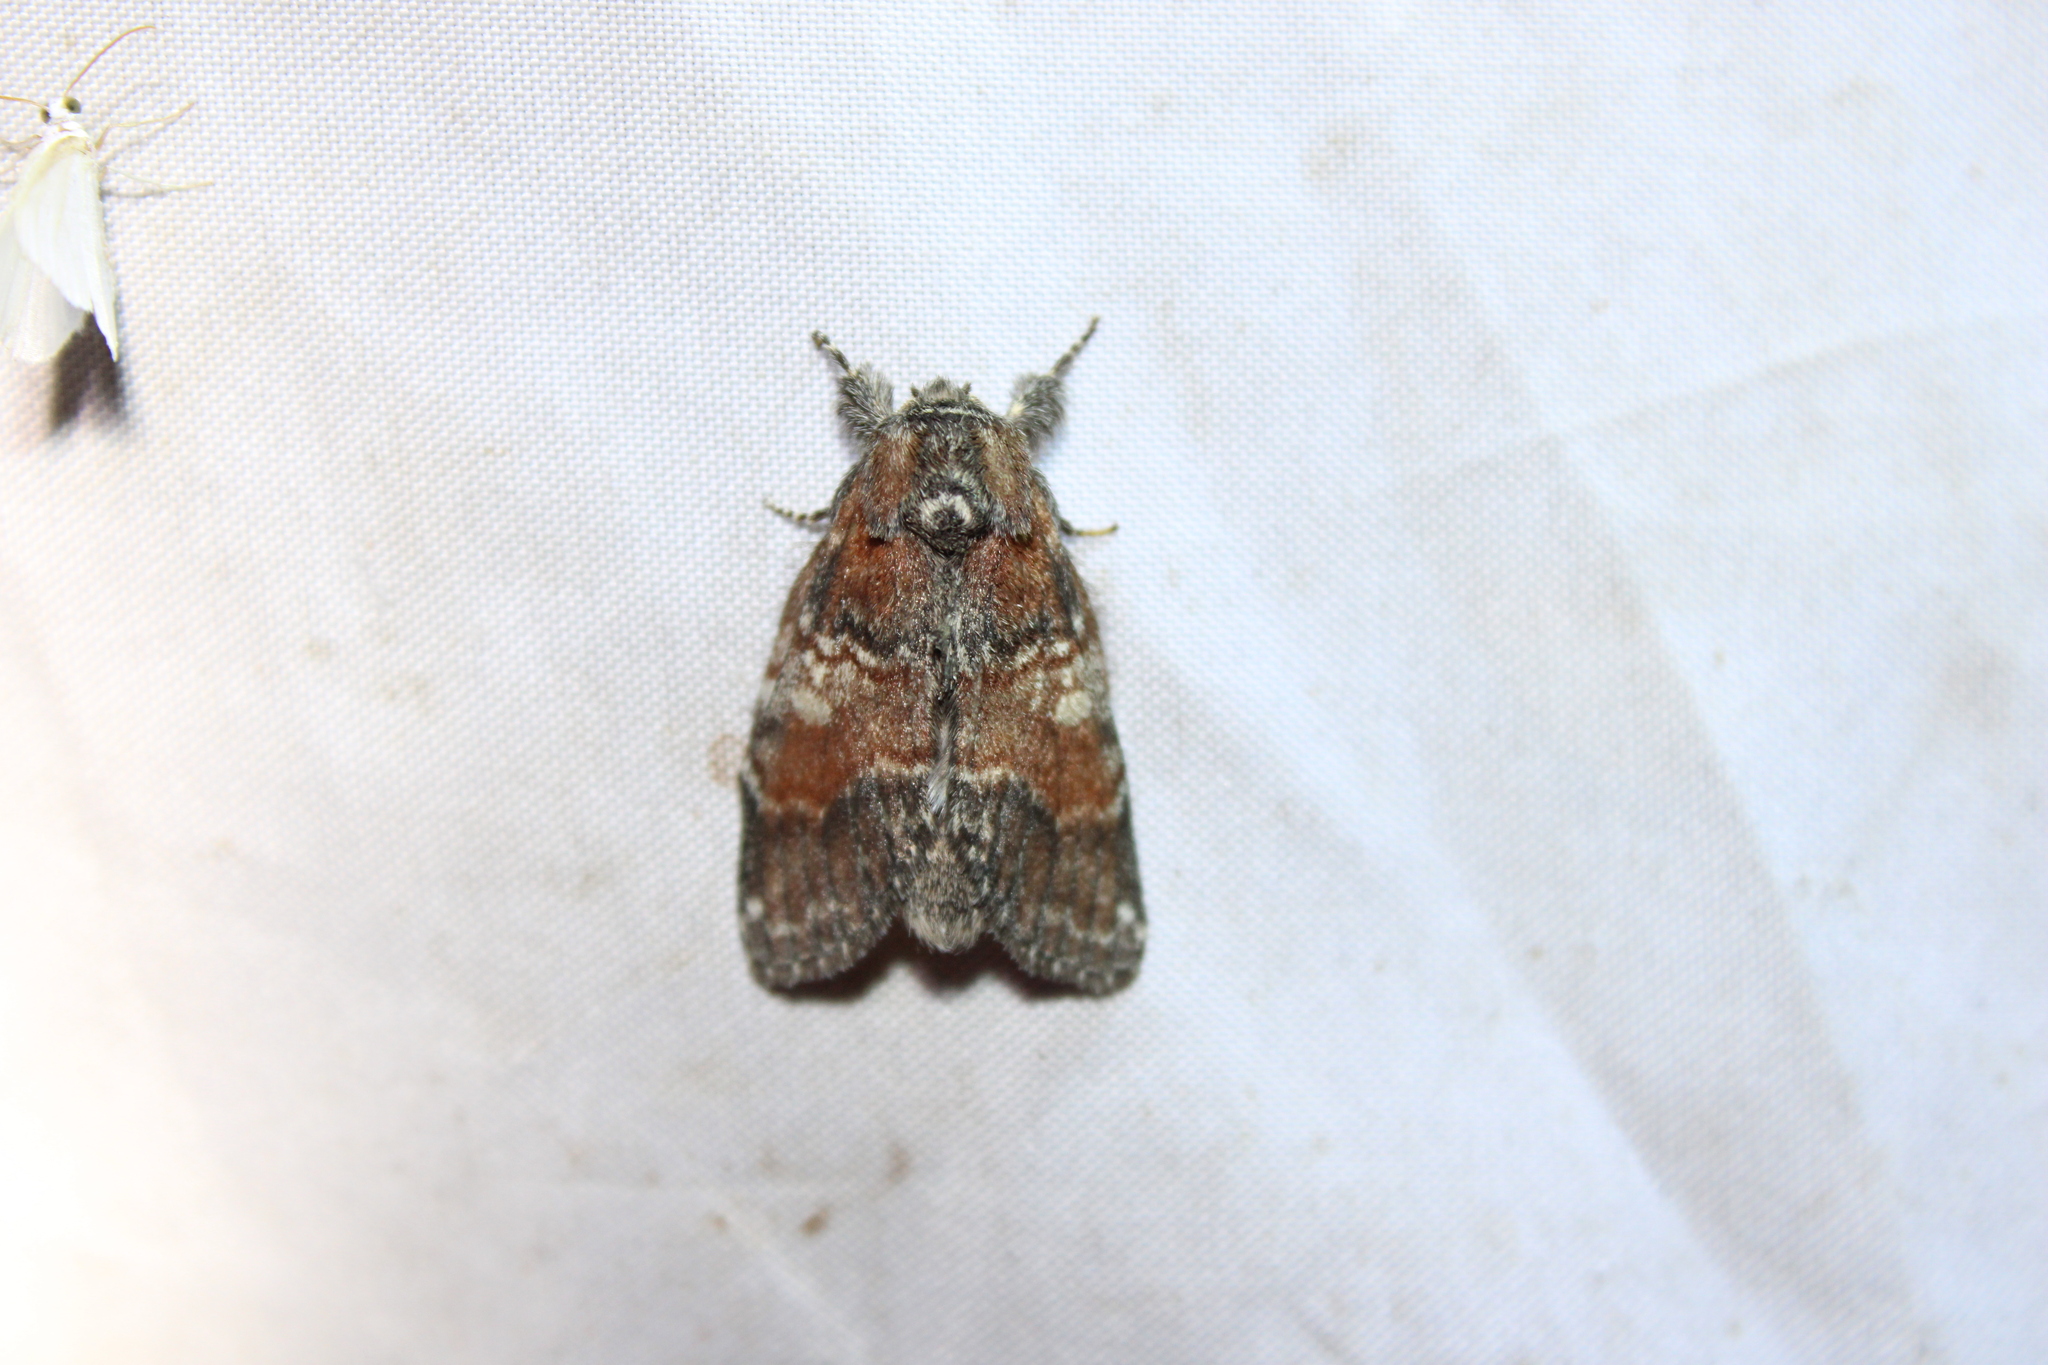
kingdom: Animalia
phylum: Arthropoda
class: Insecta
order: Lepidoptera
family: Notodontidae
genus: Peridea
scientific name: Peridea ferruginea
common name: Chocolate prominent
